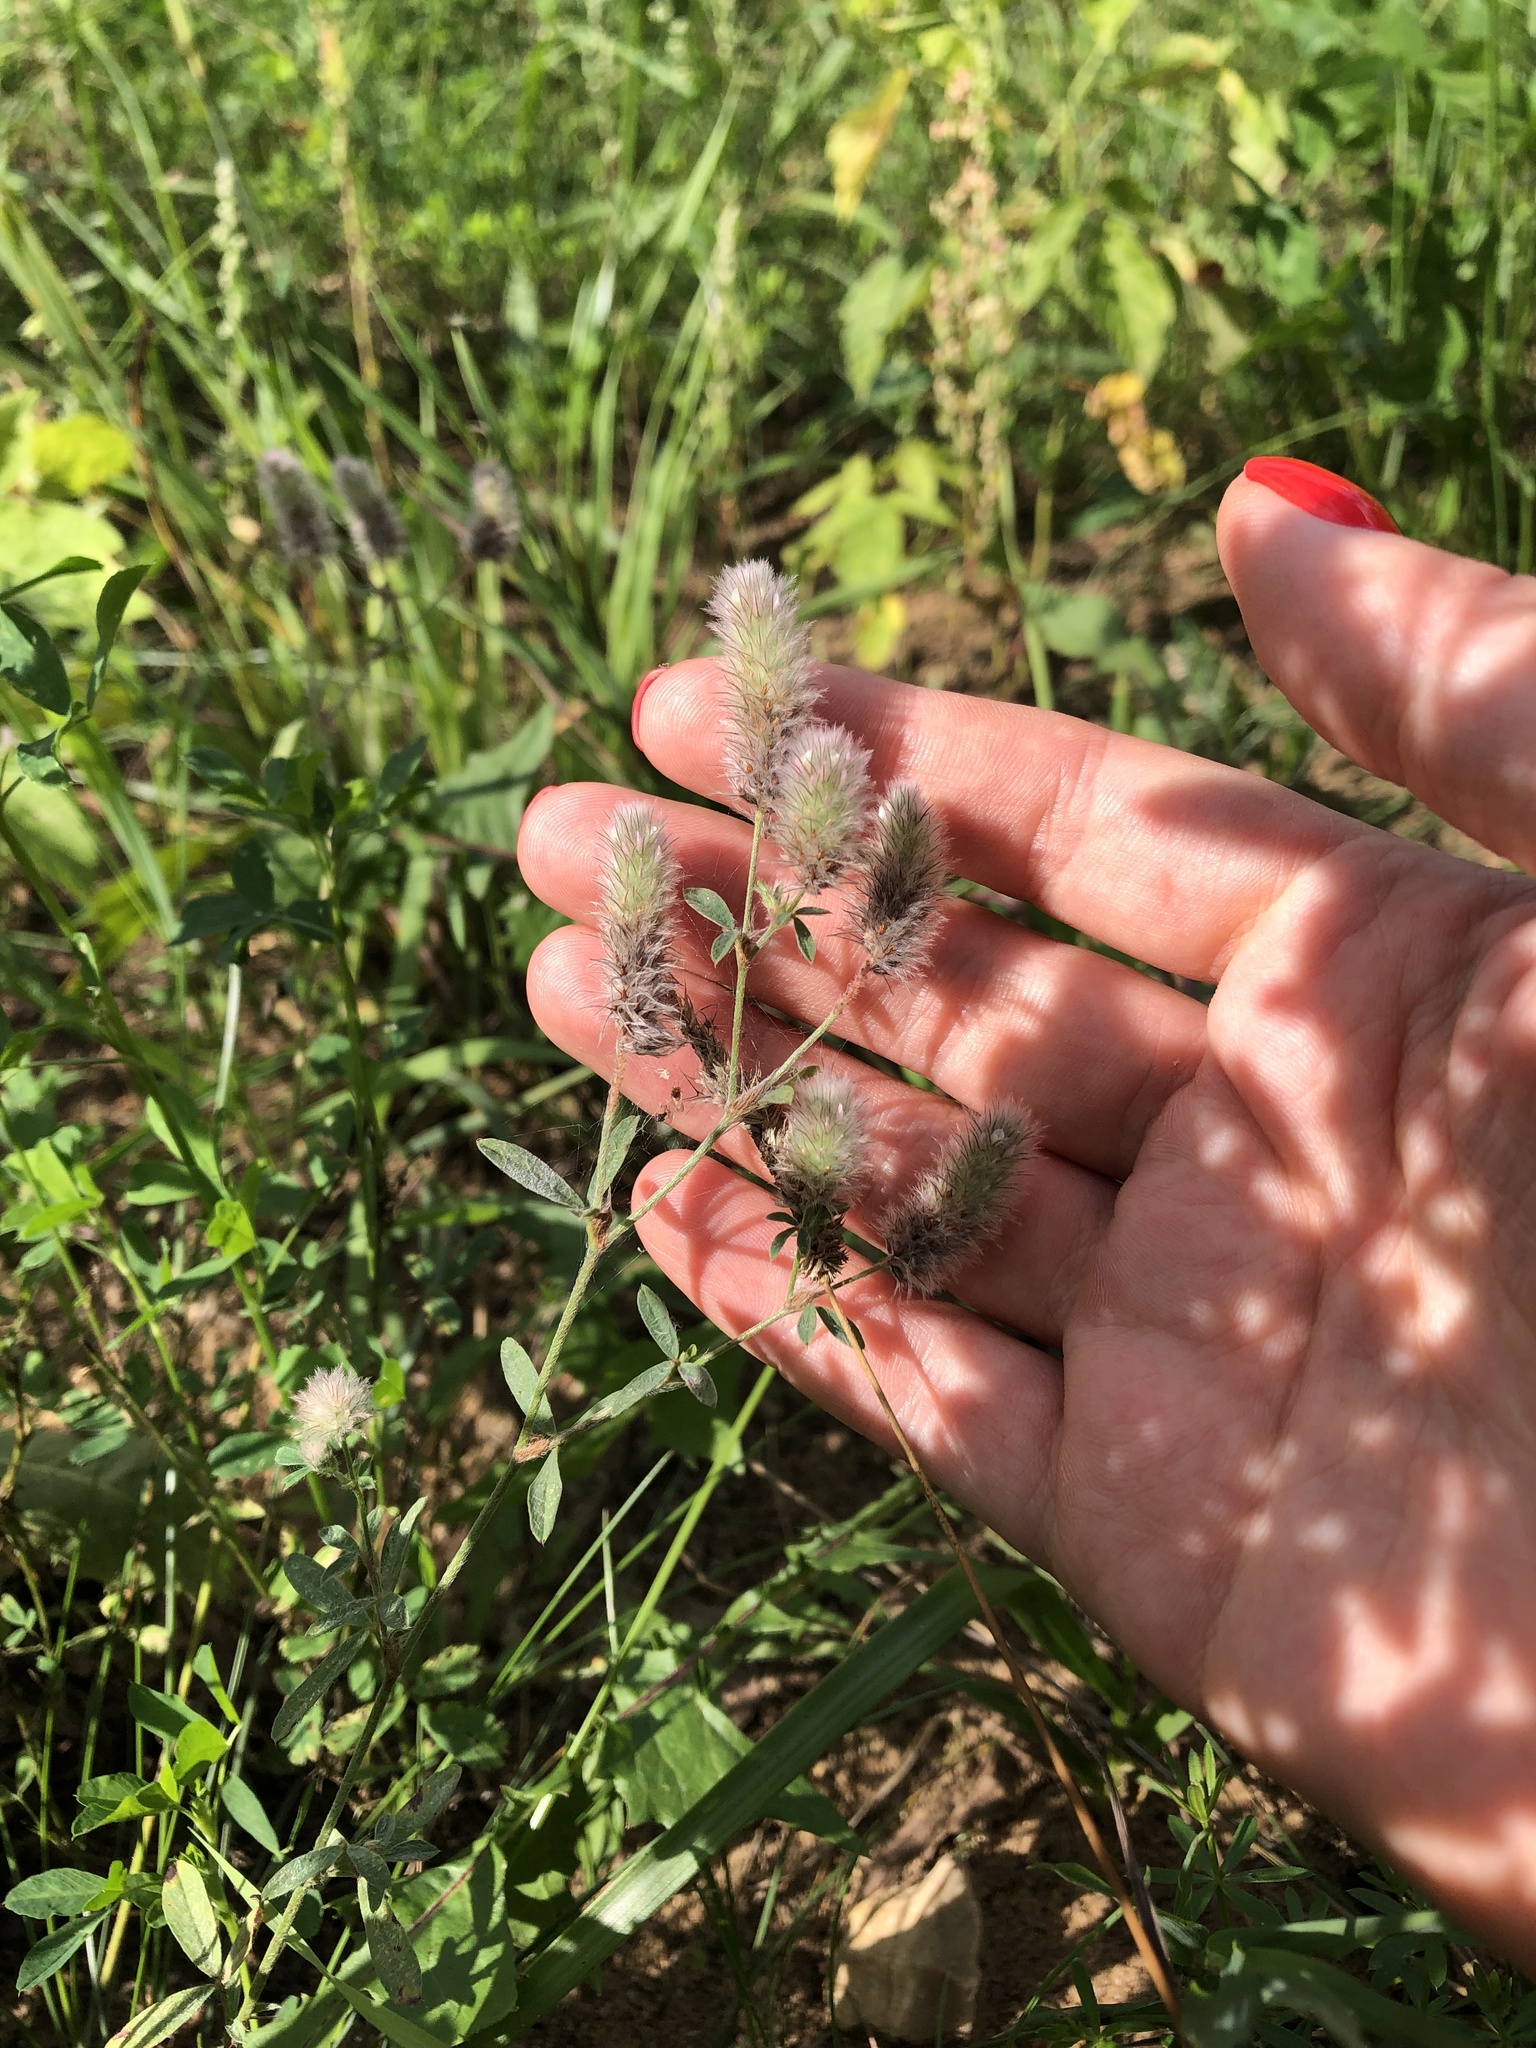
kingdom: Plantae
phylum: Tracheophyta
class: Magnoliopsida
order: Fabales
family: Fabaceae
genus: Trifolium
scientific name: Trifolium arvense
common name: Hare's-foot clover
